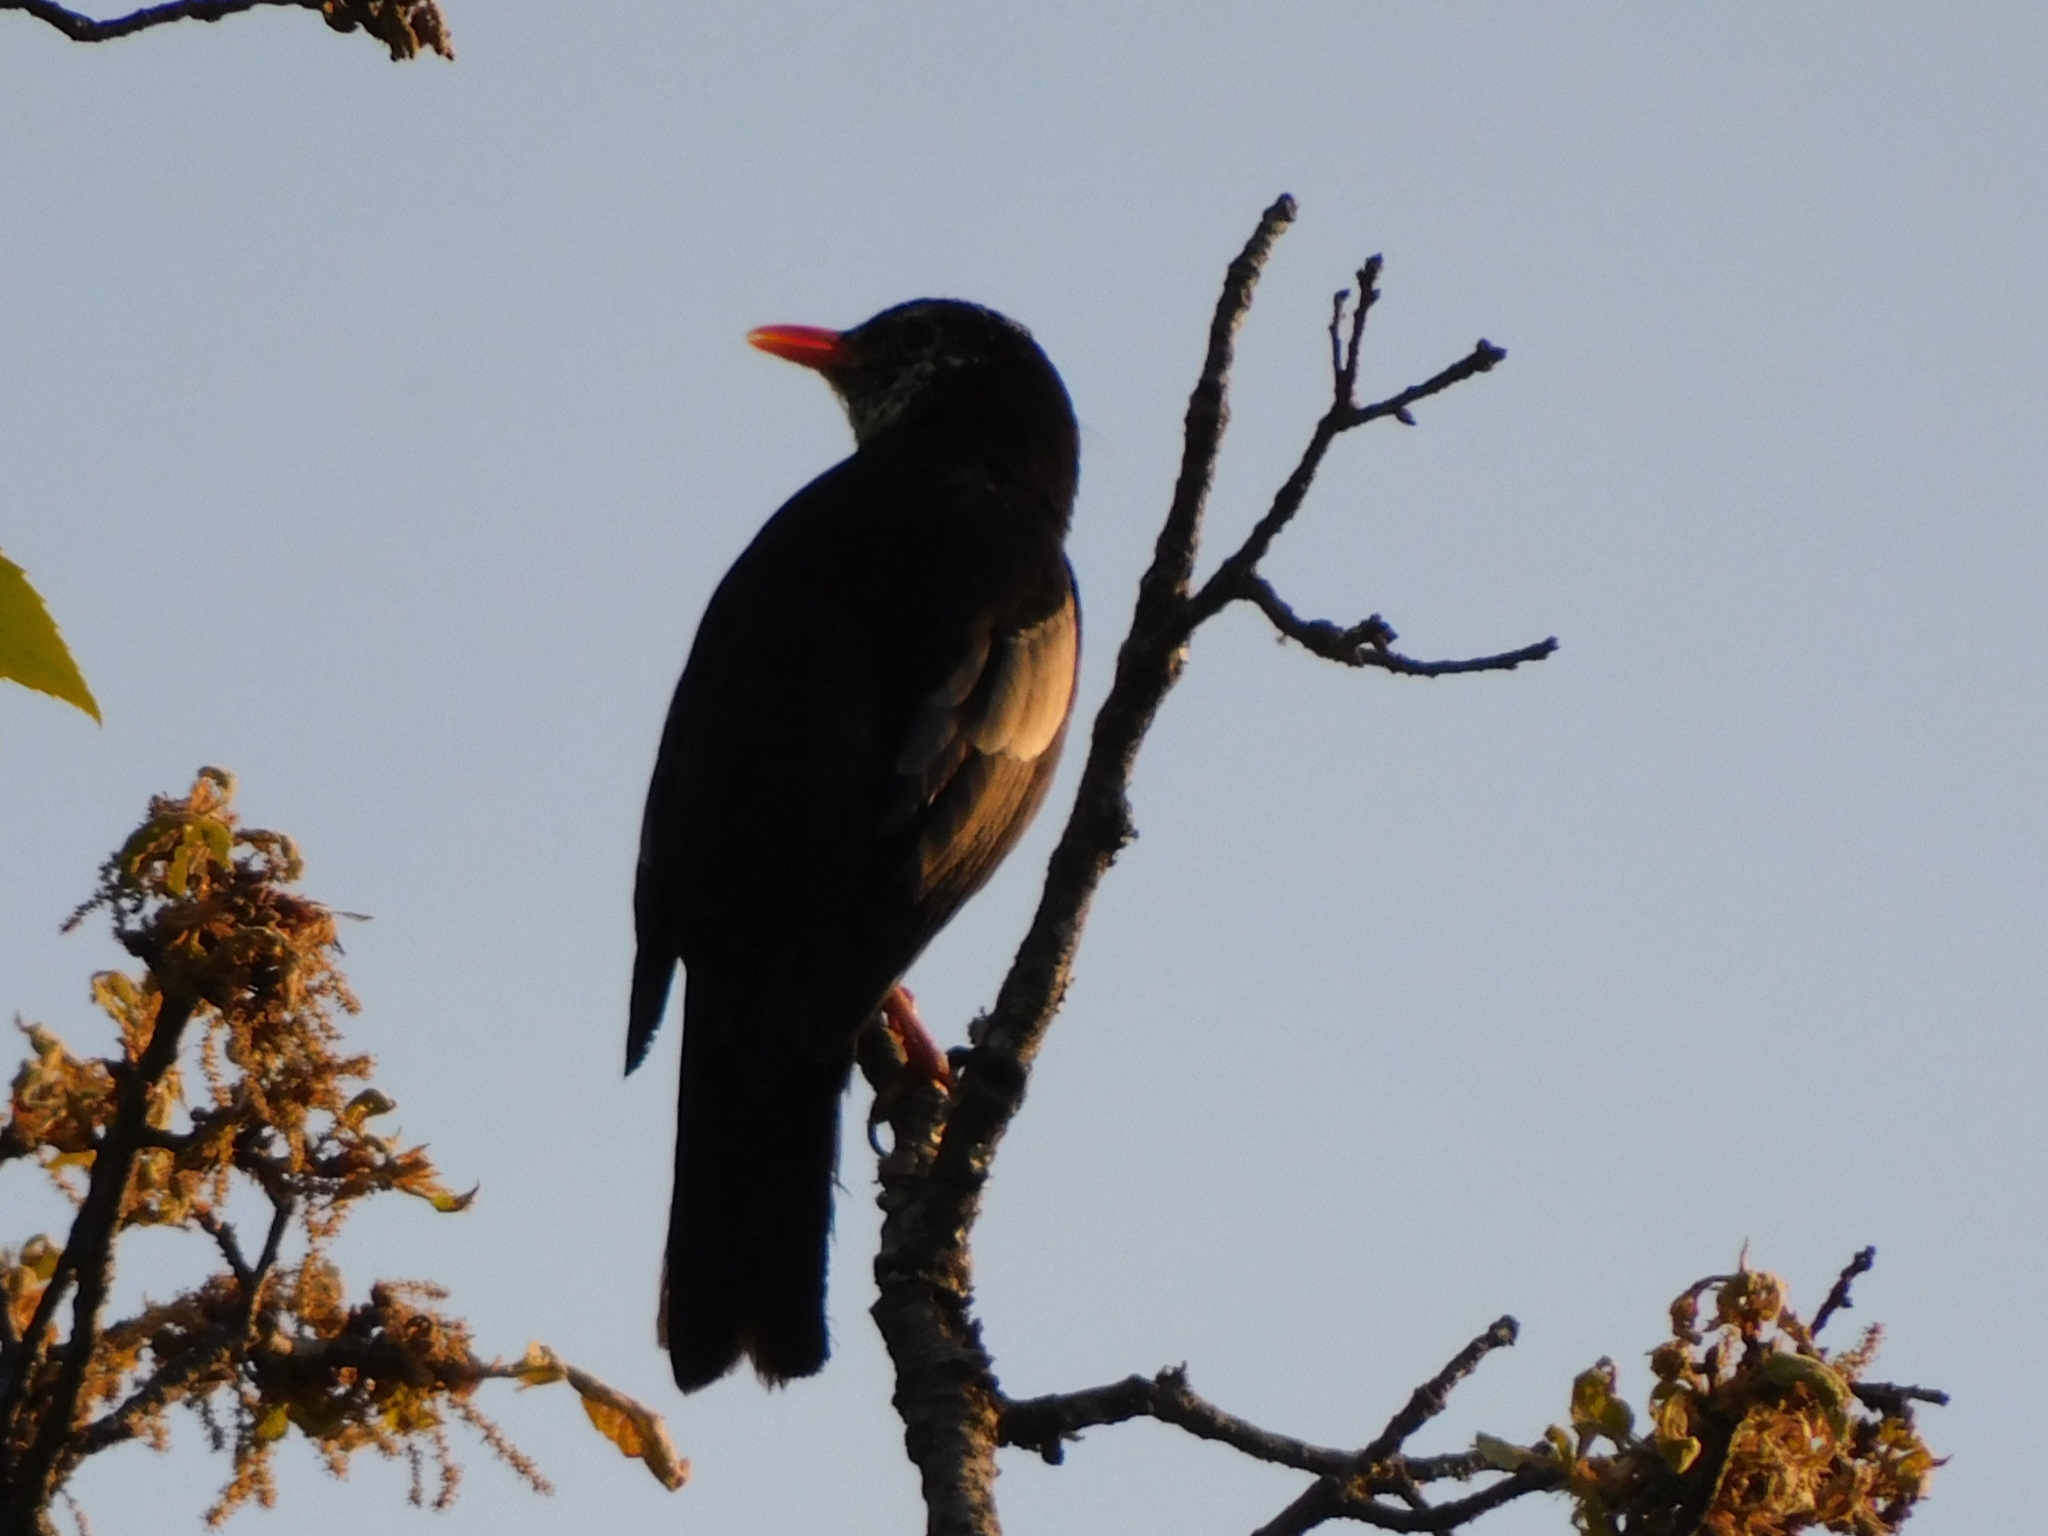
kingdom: Animalia
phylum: Chordata
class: Aves
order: Passeriformes
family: Turdidae
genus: Turdus
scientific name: Turdus boulboul
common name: Grey-winged blackbird
